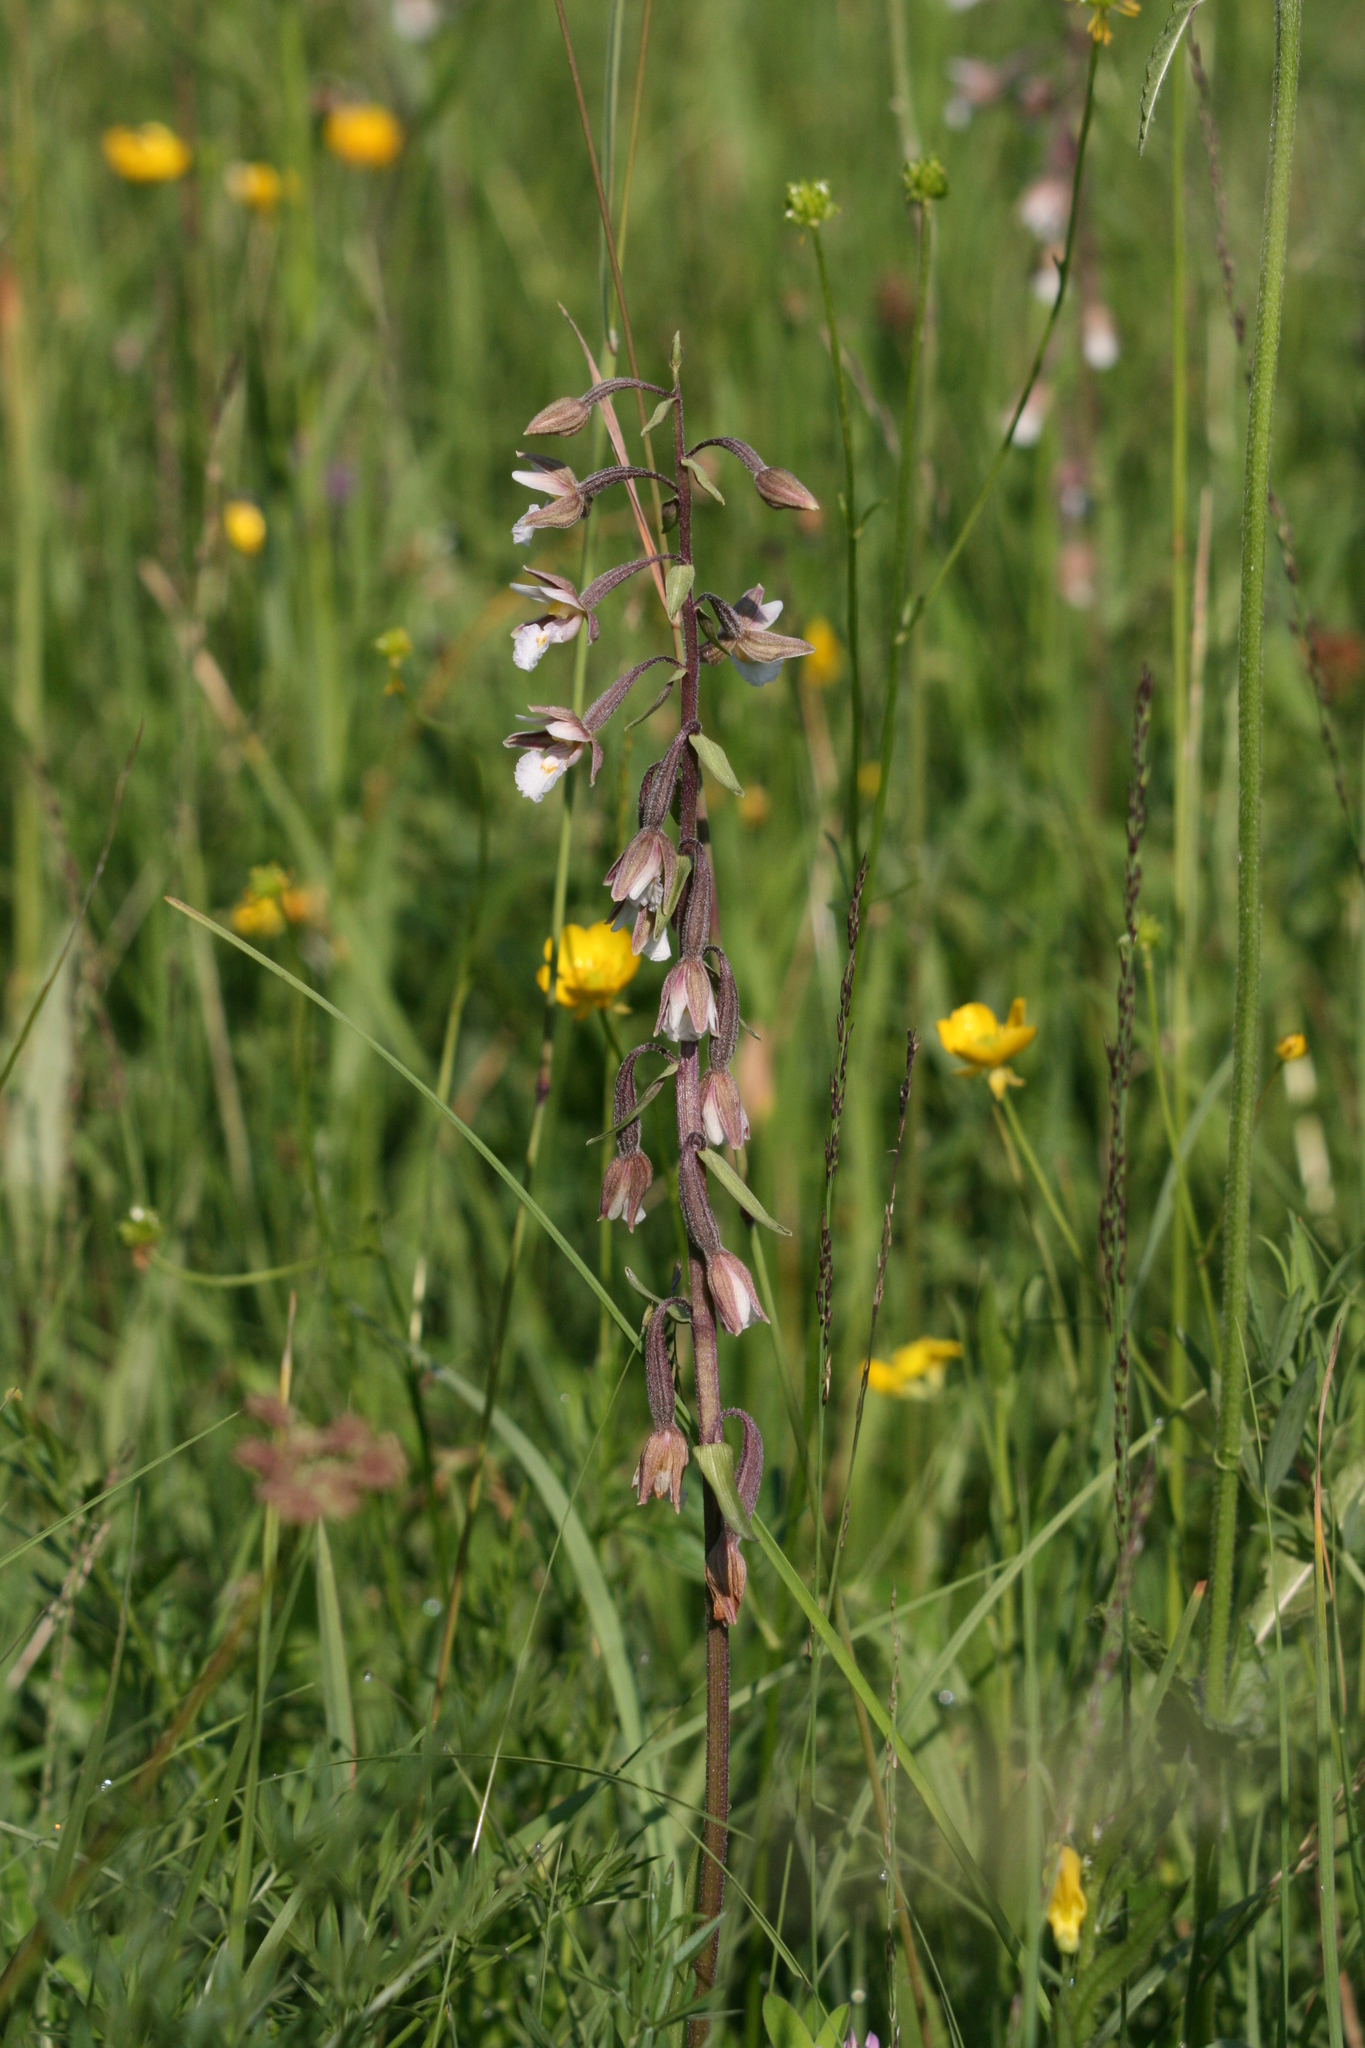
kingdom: Plantae
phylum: Tracheophyta
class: Liliopsida
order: Asparagales
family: Orchidaceae
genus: Epipactis
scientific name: Epipactis palustris
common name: Marsh helleborine
